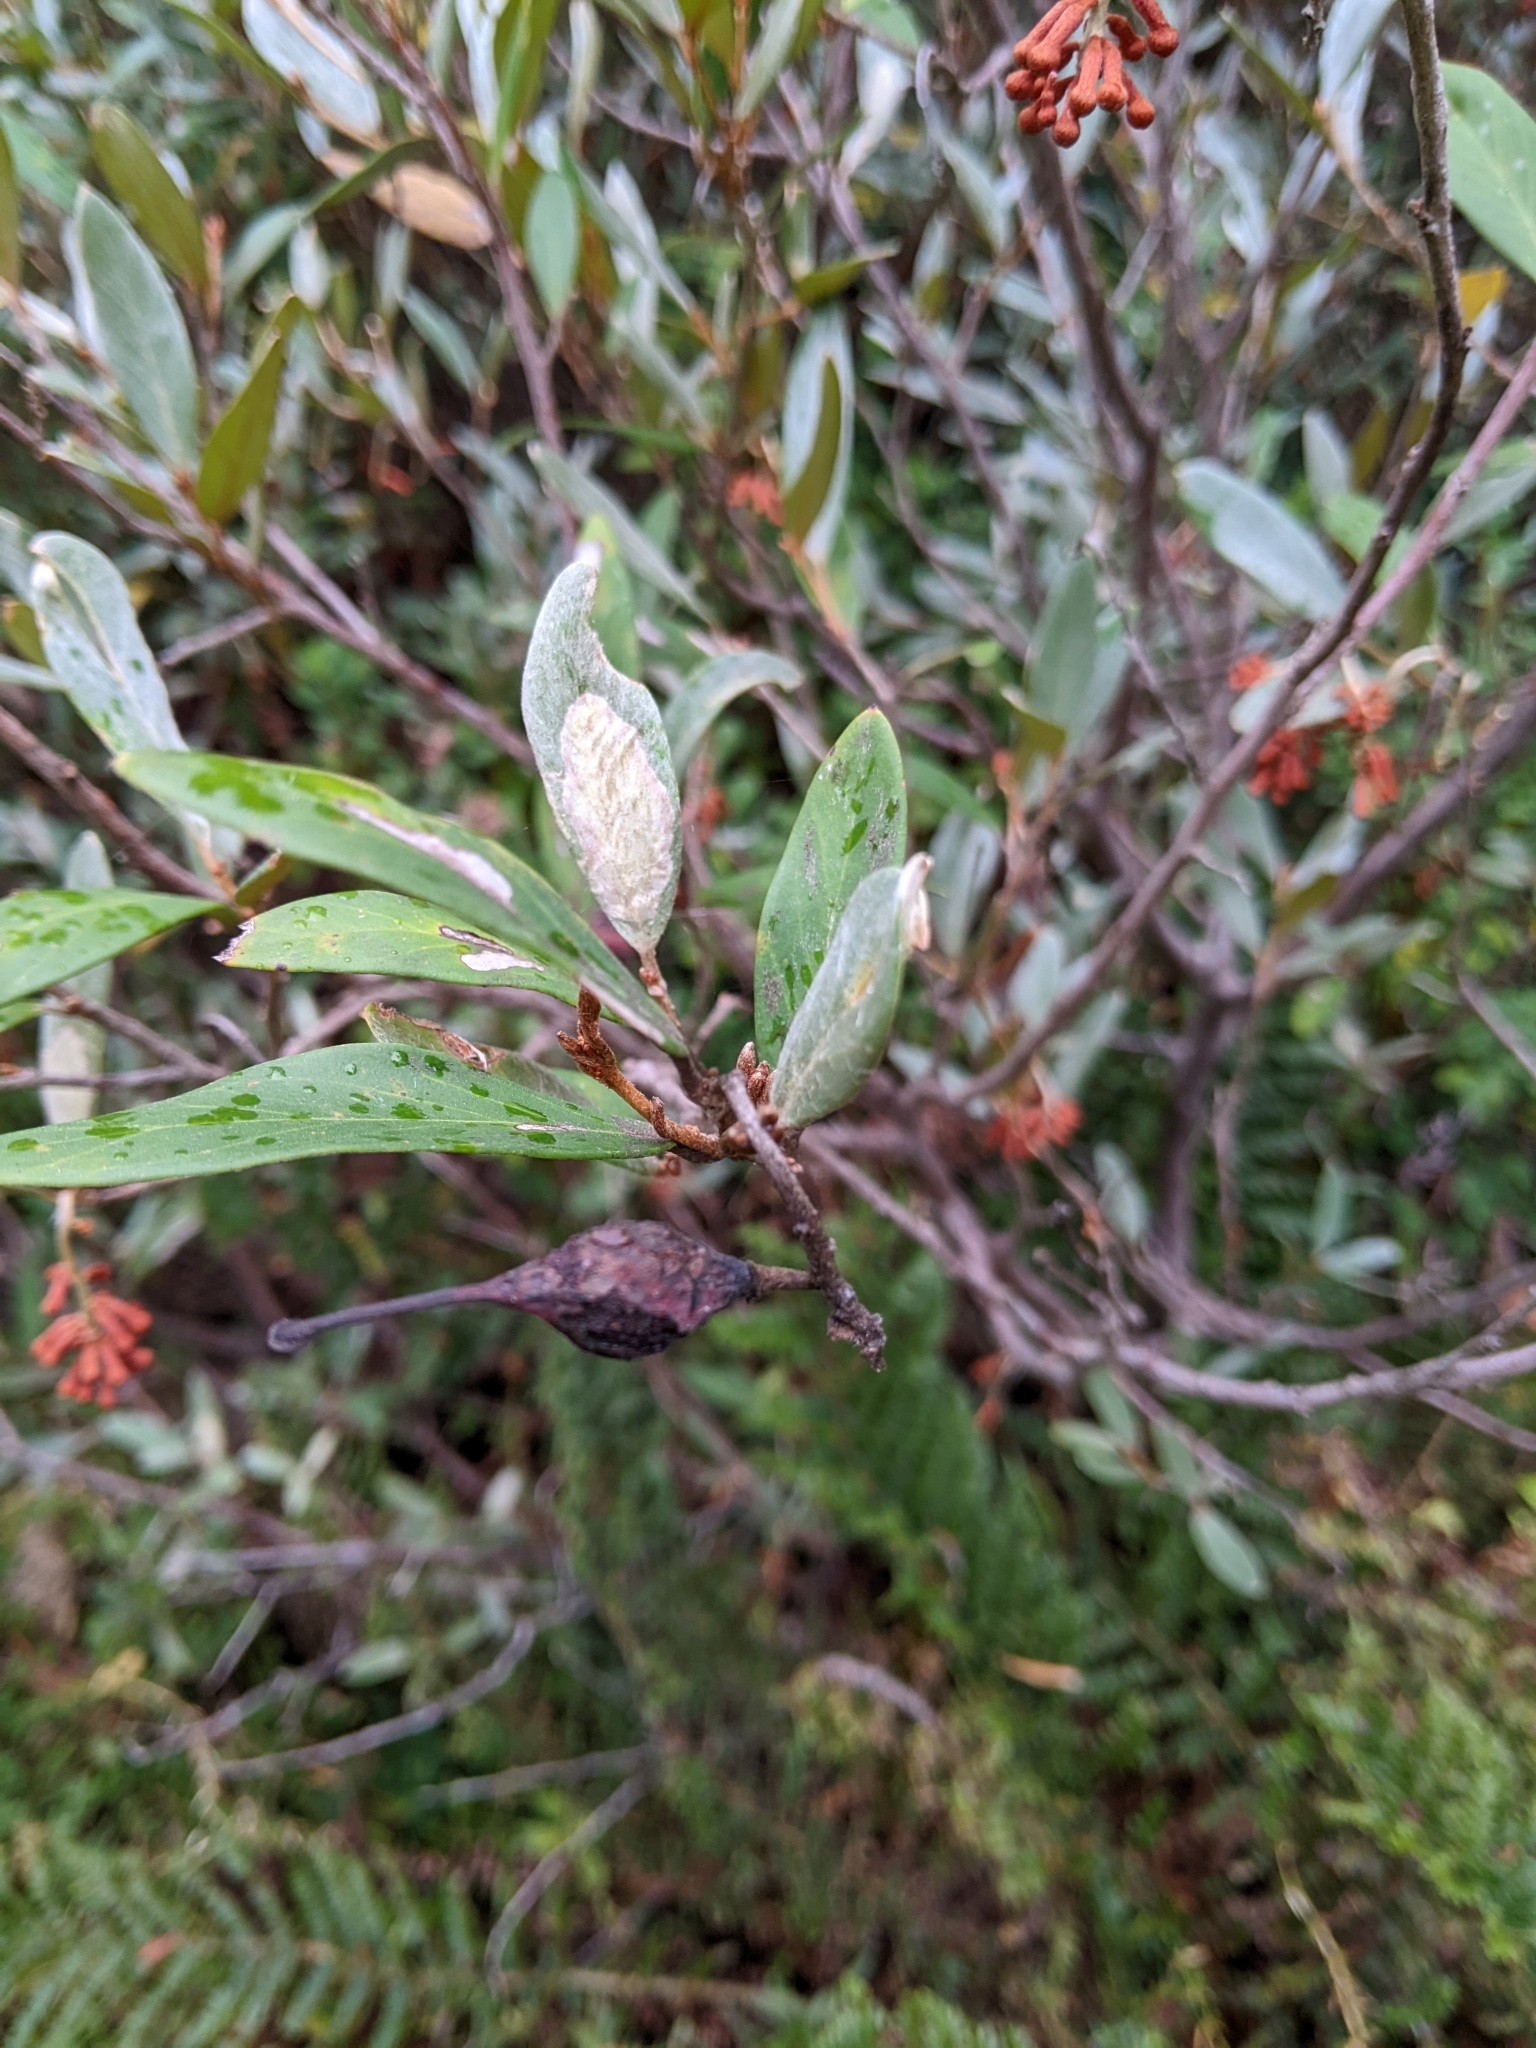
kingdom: Plantae
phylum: Tracheophyta
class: Magnoliopsida
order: Proteales
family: Proteaceae
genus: Grevillea
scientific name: Grevillea victoriae
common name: Royal grevillea
